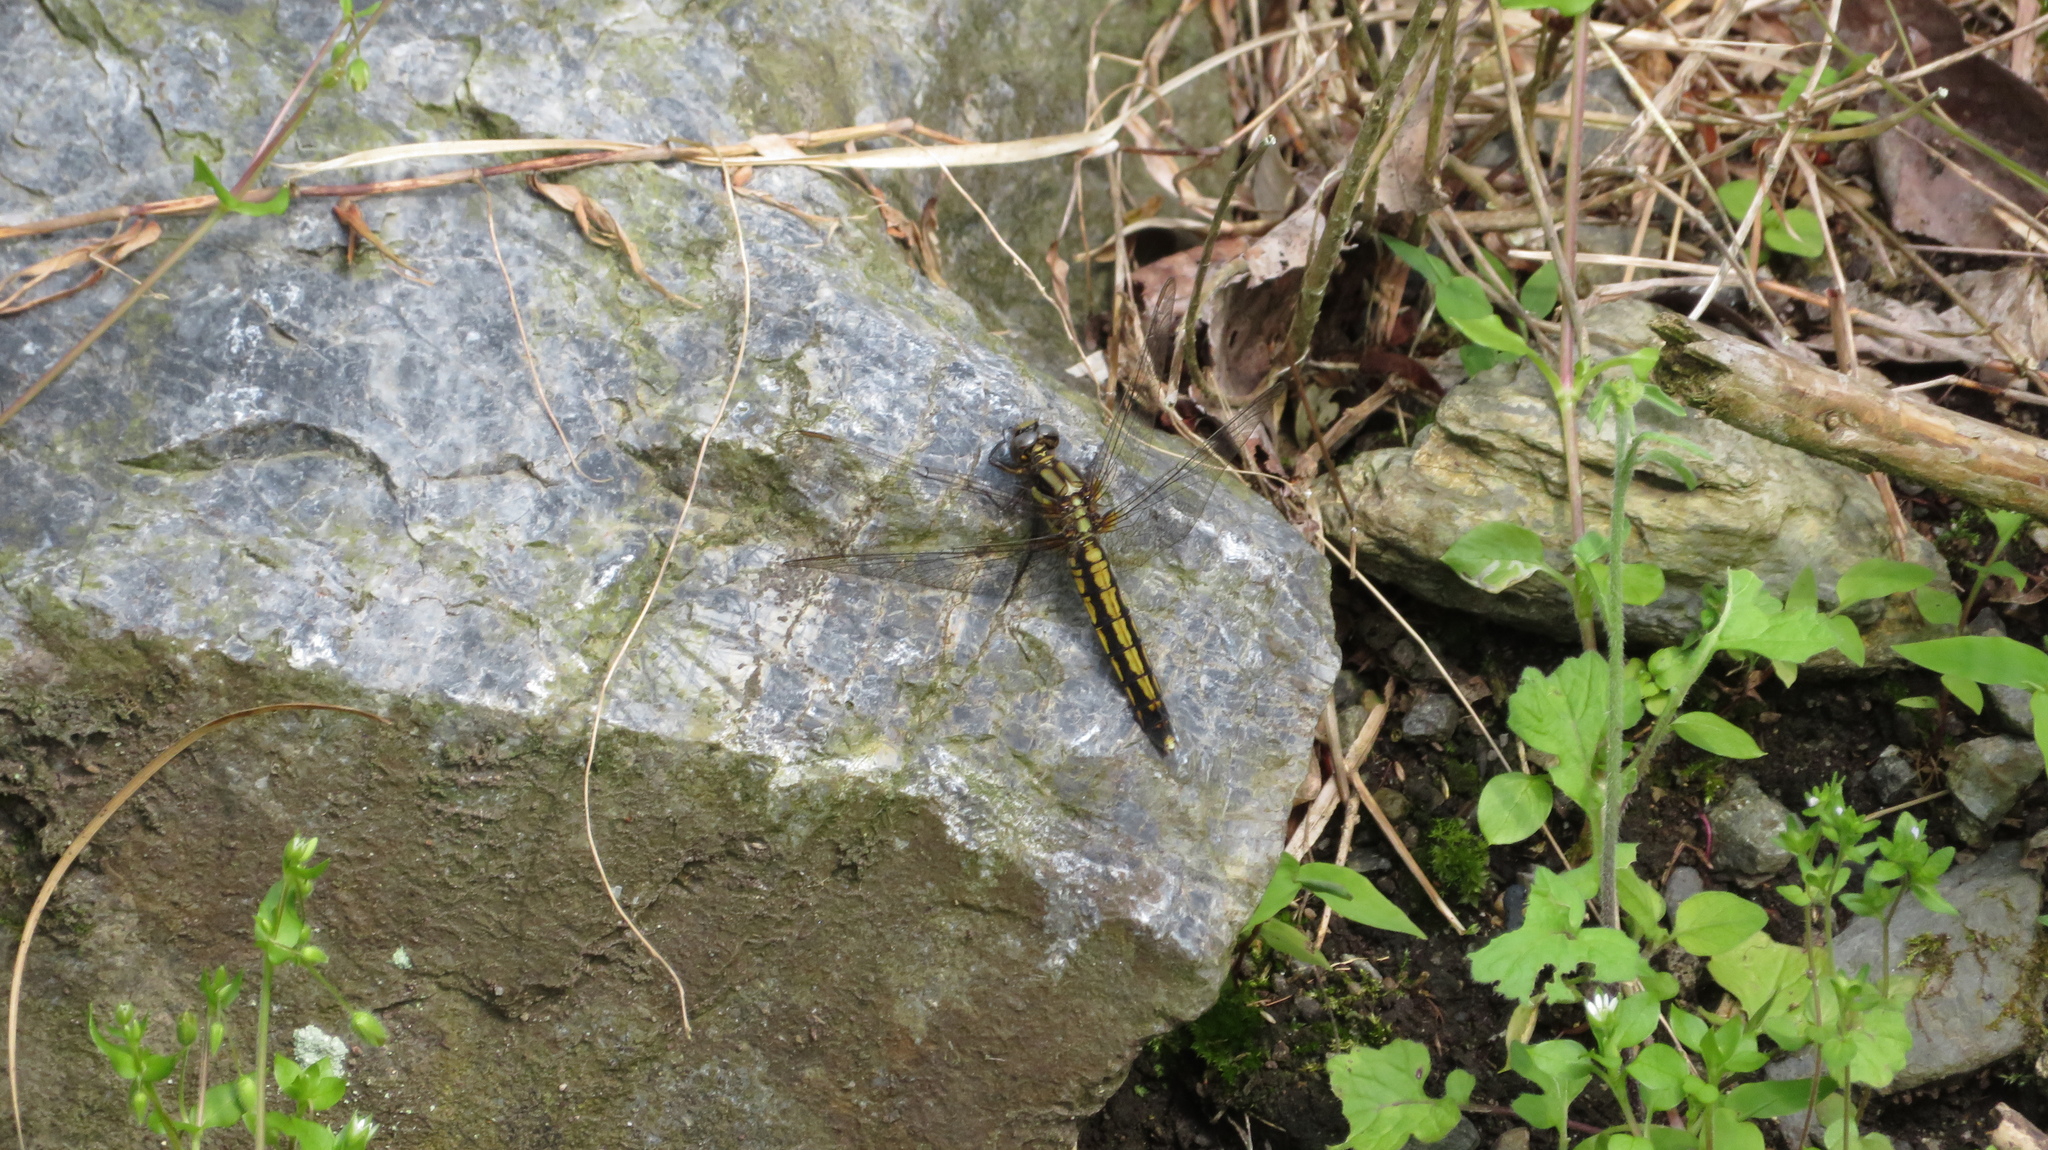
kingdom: Animalia
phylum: Arthropoda
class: Insecta
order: Odonata
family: Libellulidae
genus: Orthetrum
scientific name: Orthetrum japonicum
